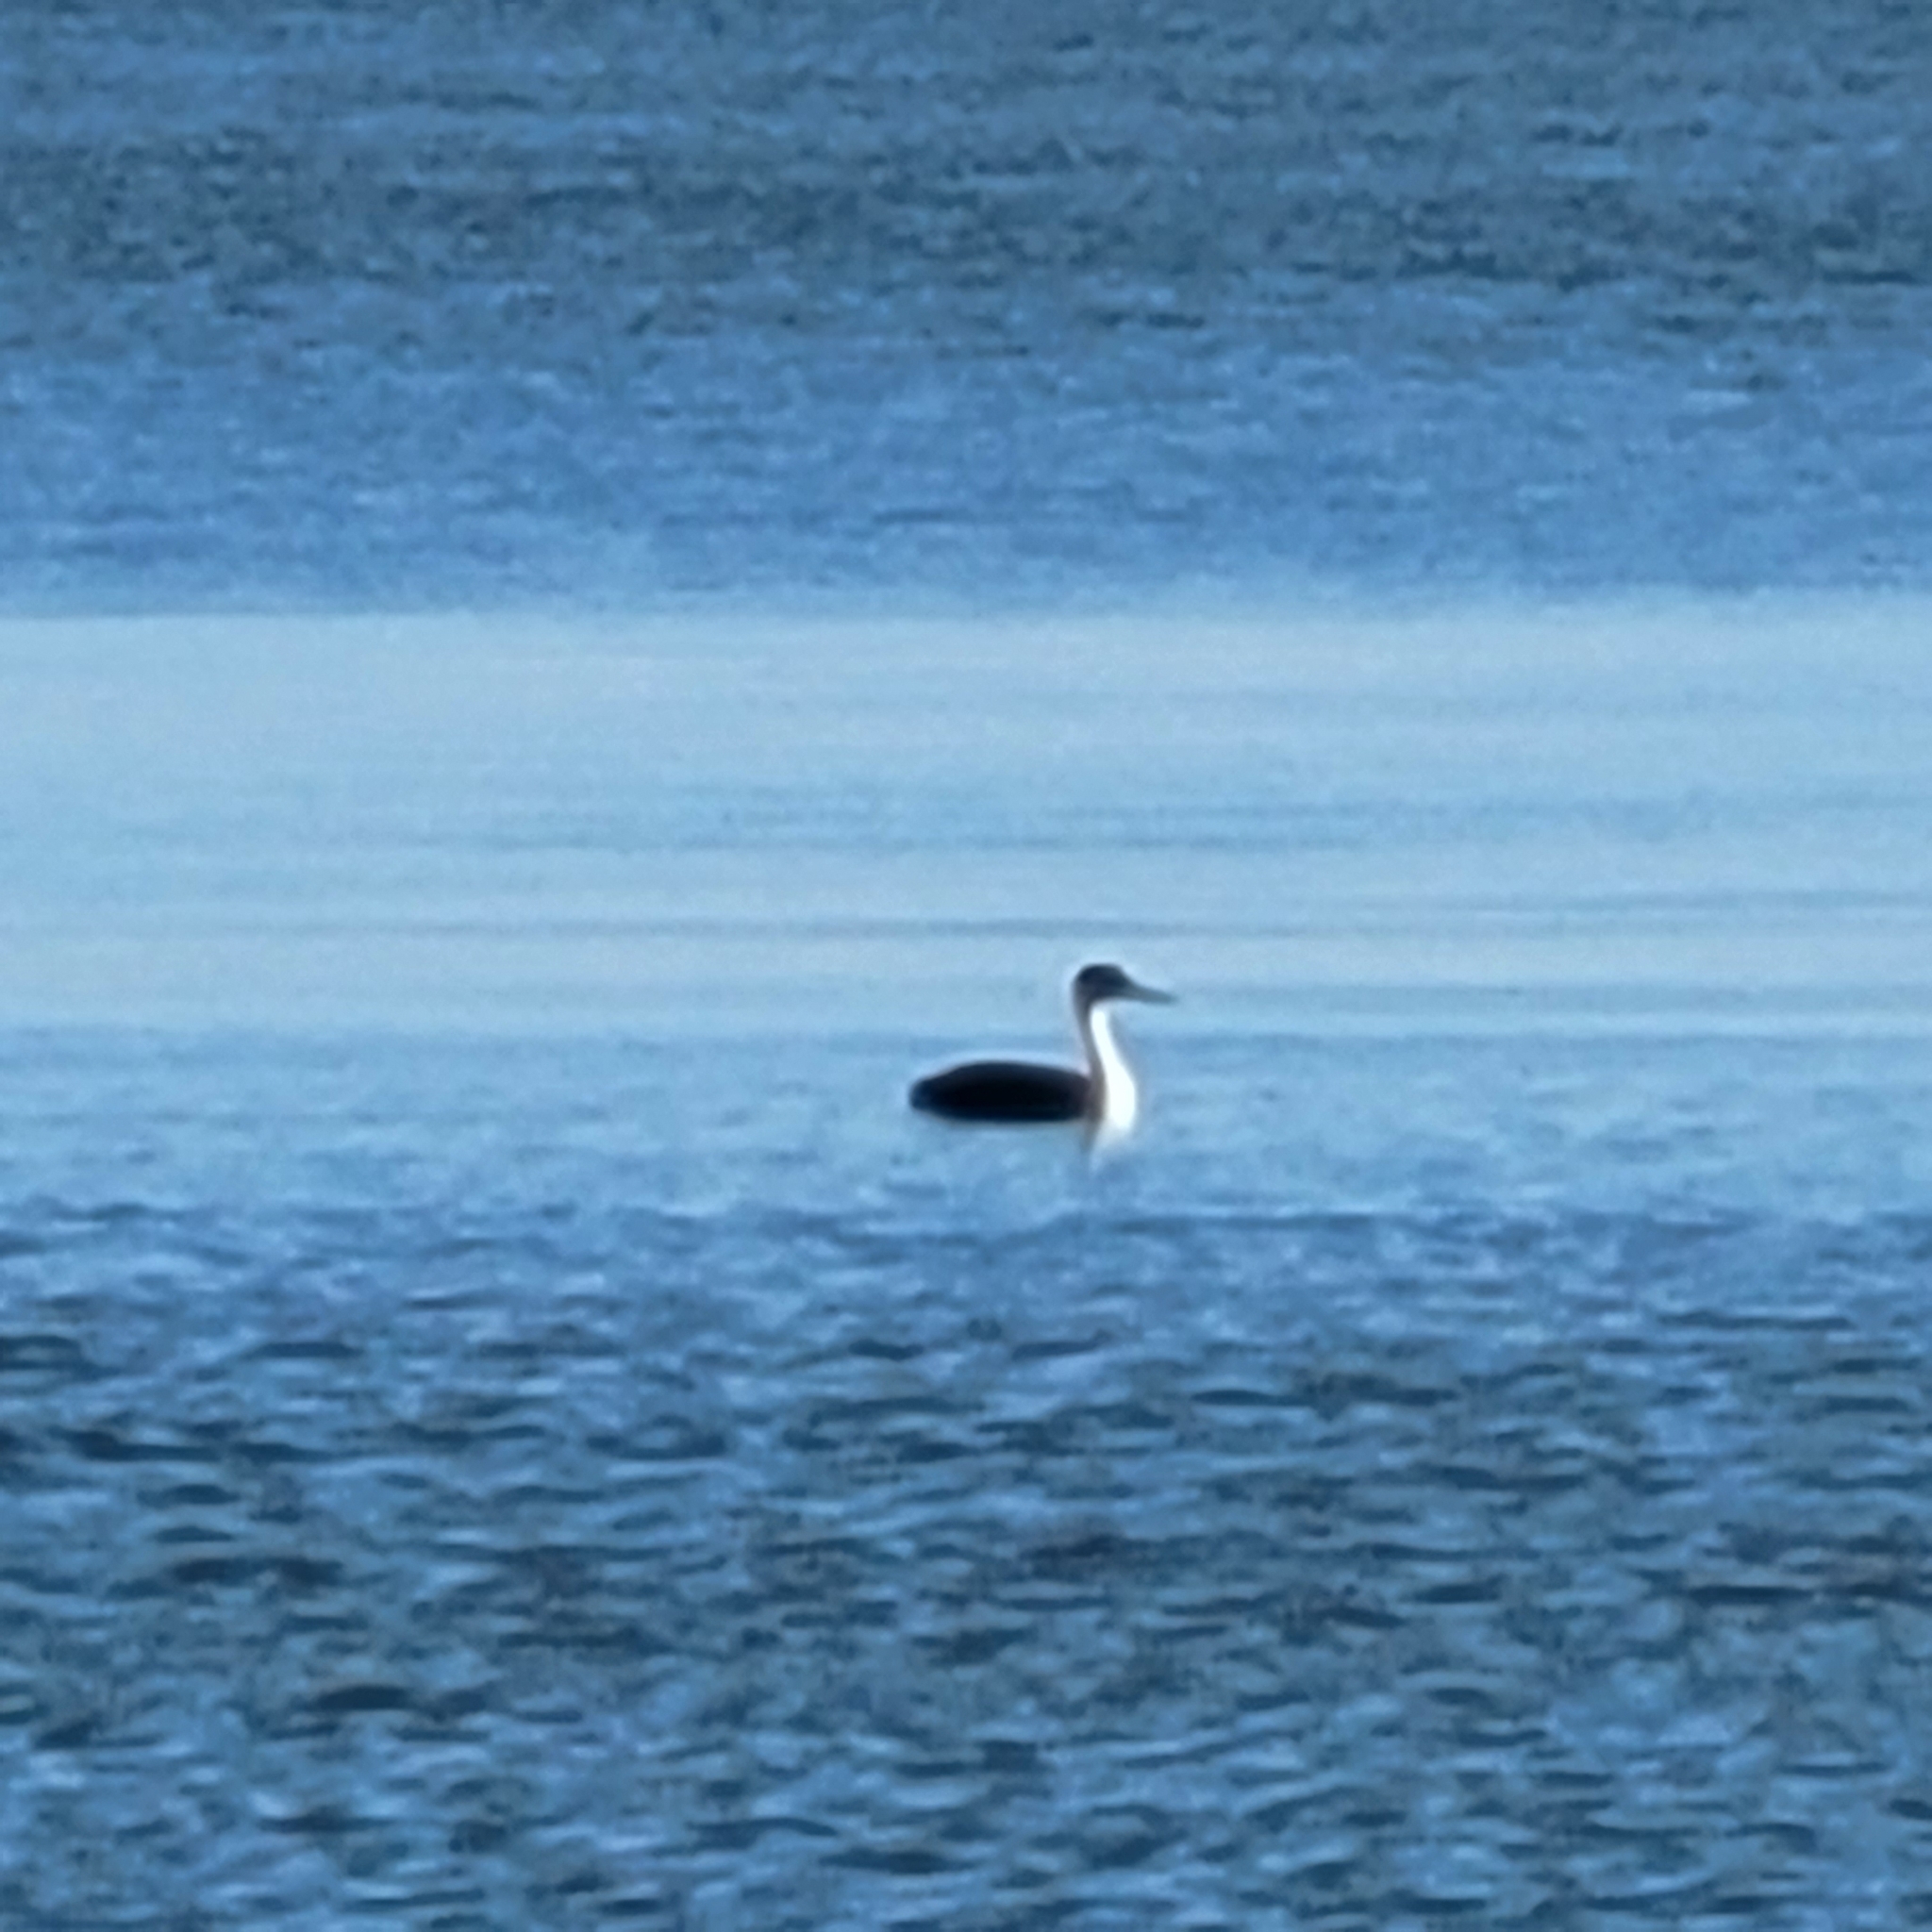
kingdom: Animalia
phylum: Chordata
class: Aves
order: Podicipediformes
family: Podicipedidae
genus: Aechmophorus
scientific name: Aechmophorus
